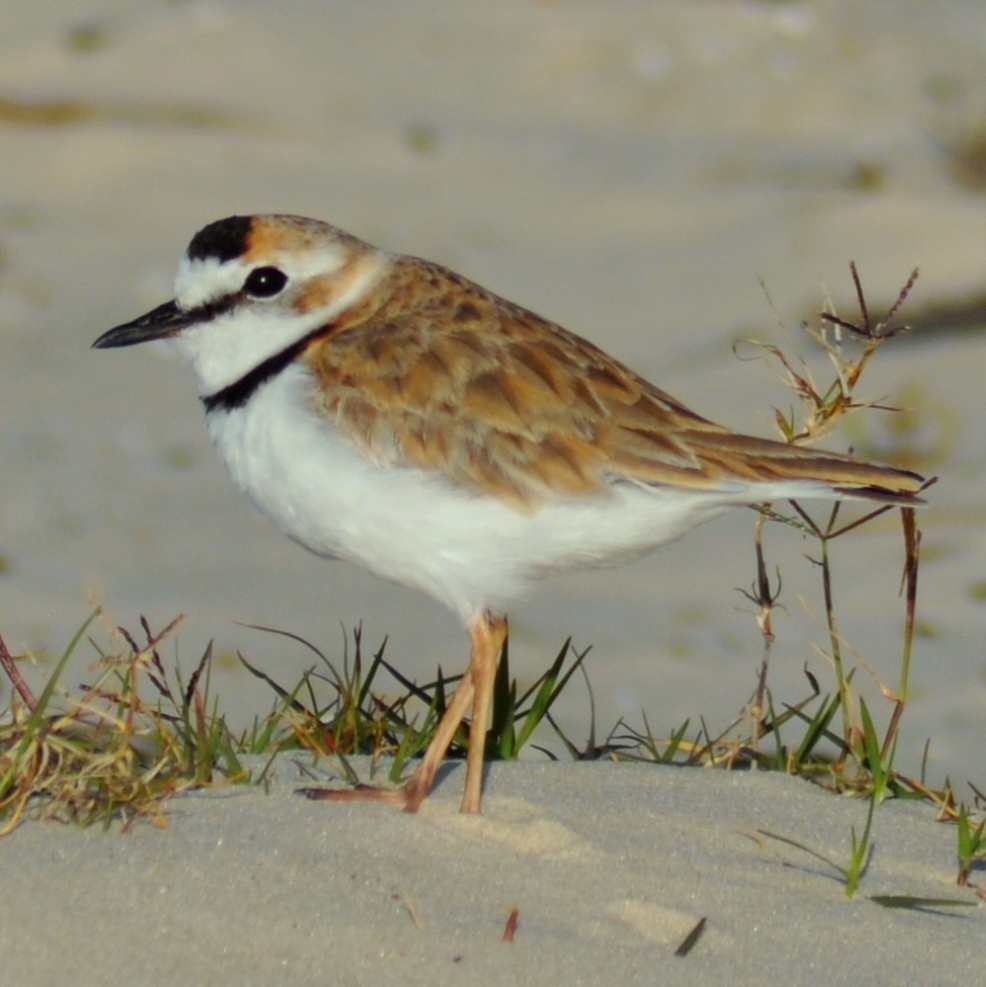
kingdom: Animalia
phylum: Chordata
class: Aves
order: Charadriiformes
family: Charadriidae
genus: Anarhynchus
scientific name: Anarhynchus
